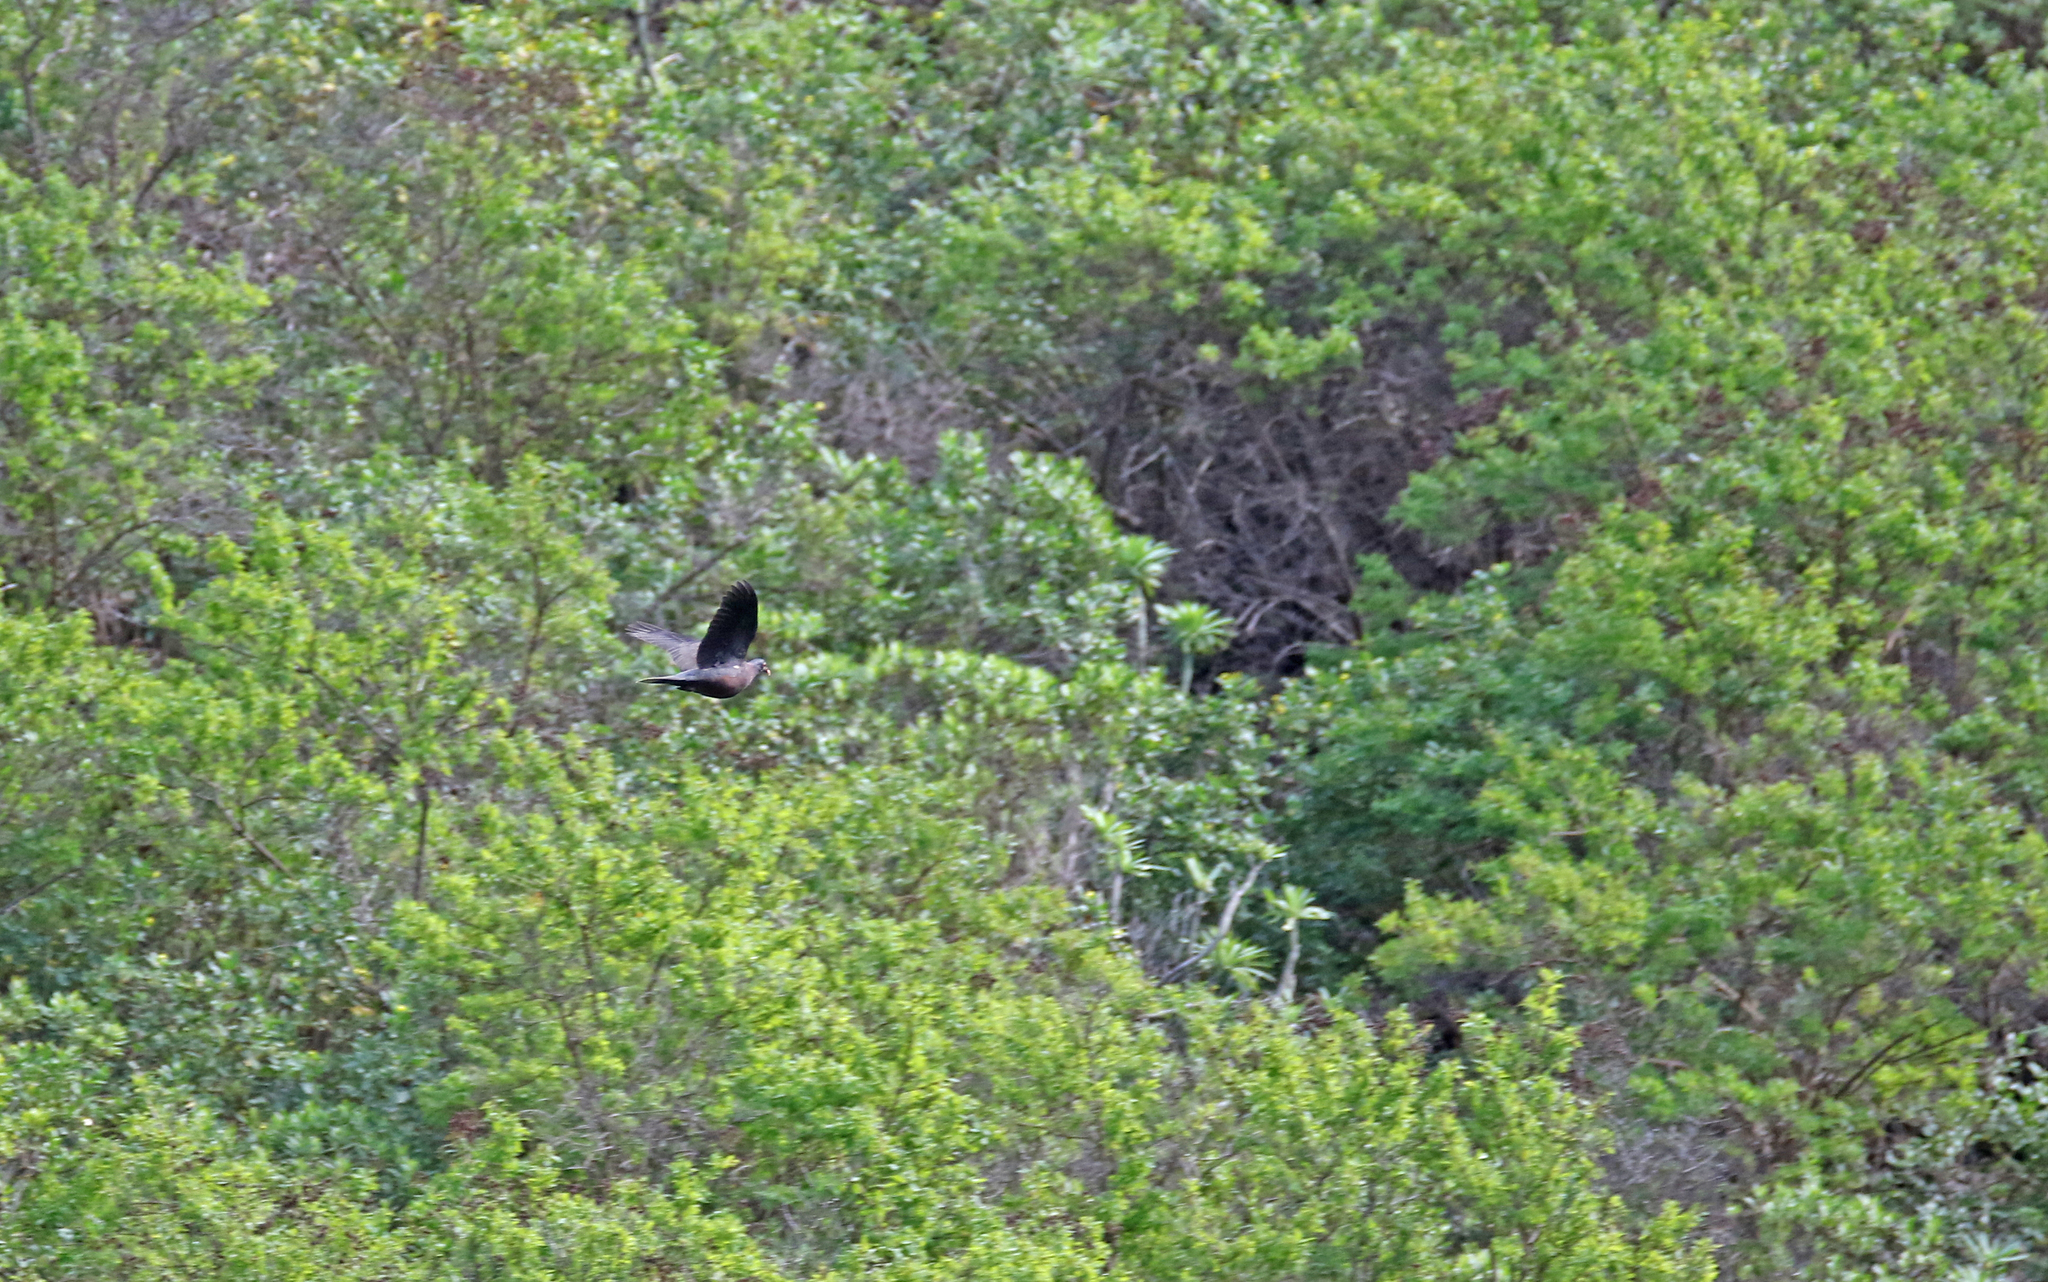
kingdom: Animalia
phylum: Chordata
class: Aves
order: Columbiformes
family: Columbidae
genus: Columba
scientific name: Columba junoniae
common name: Laurel pigeon
